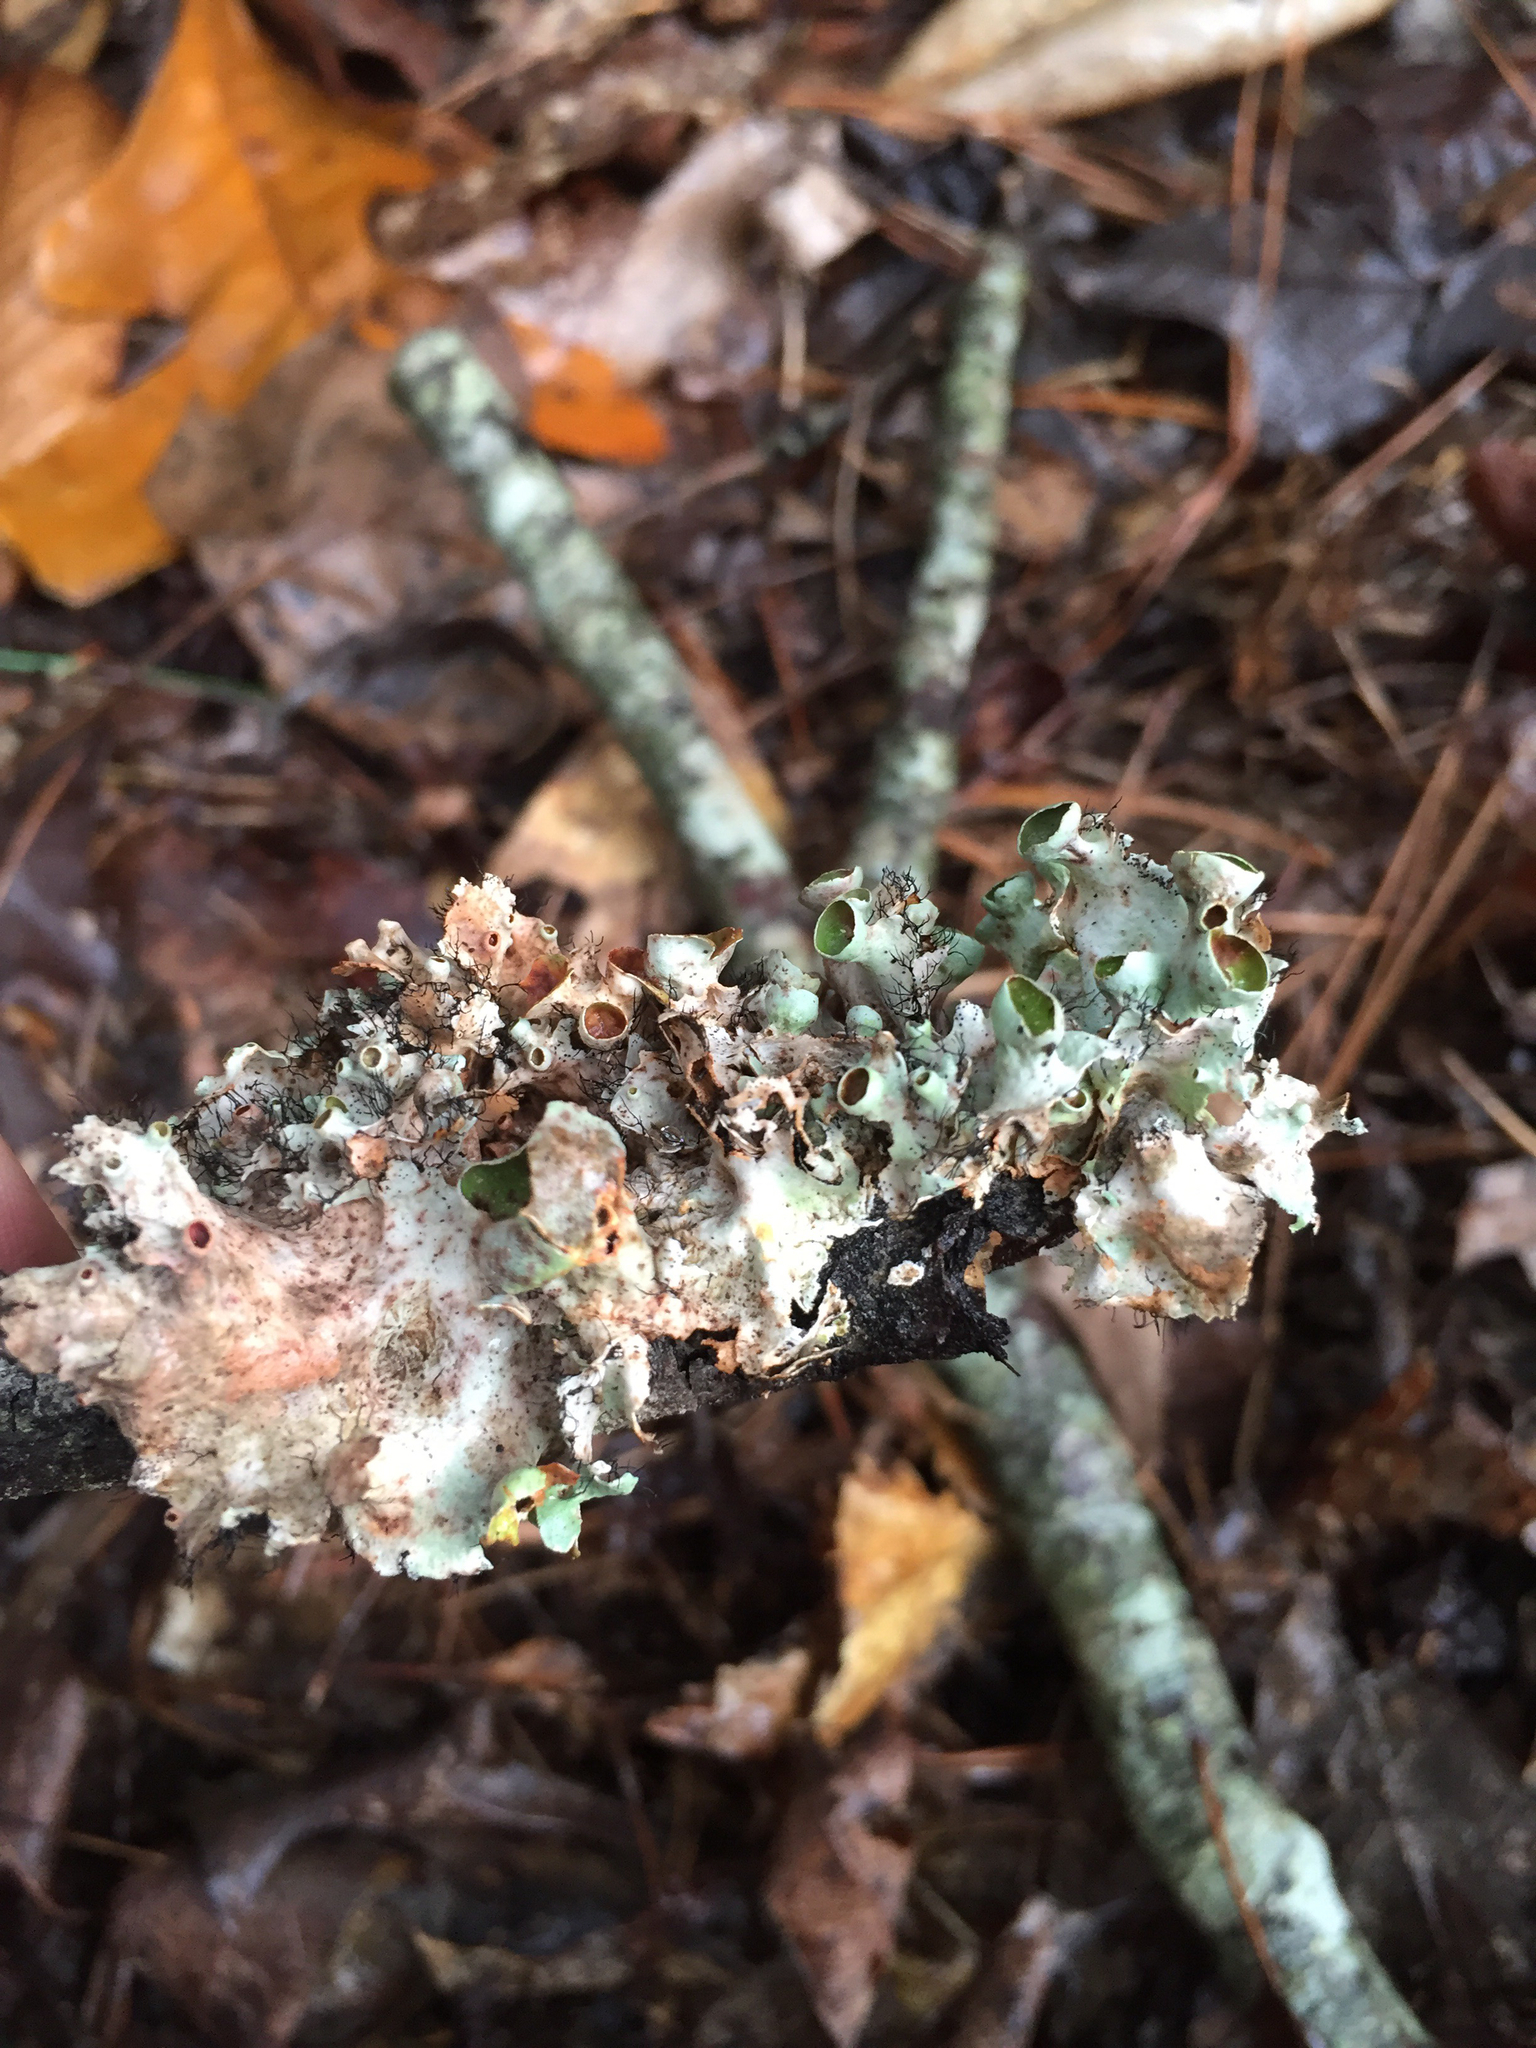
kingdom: Fungi
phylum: Ascomycota
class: Lecanoromycetes
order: Lecanorales
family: Parmeliaceae
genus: Parmotrema
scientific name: Parmotrema perforatum
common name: Perforated ruffle lichen
